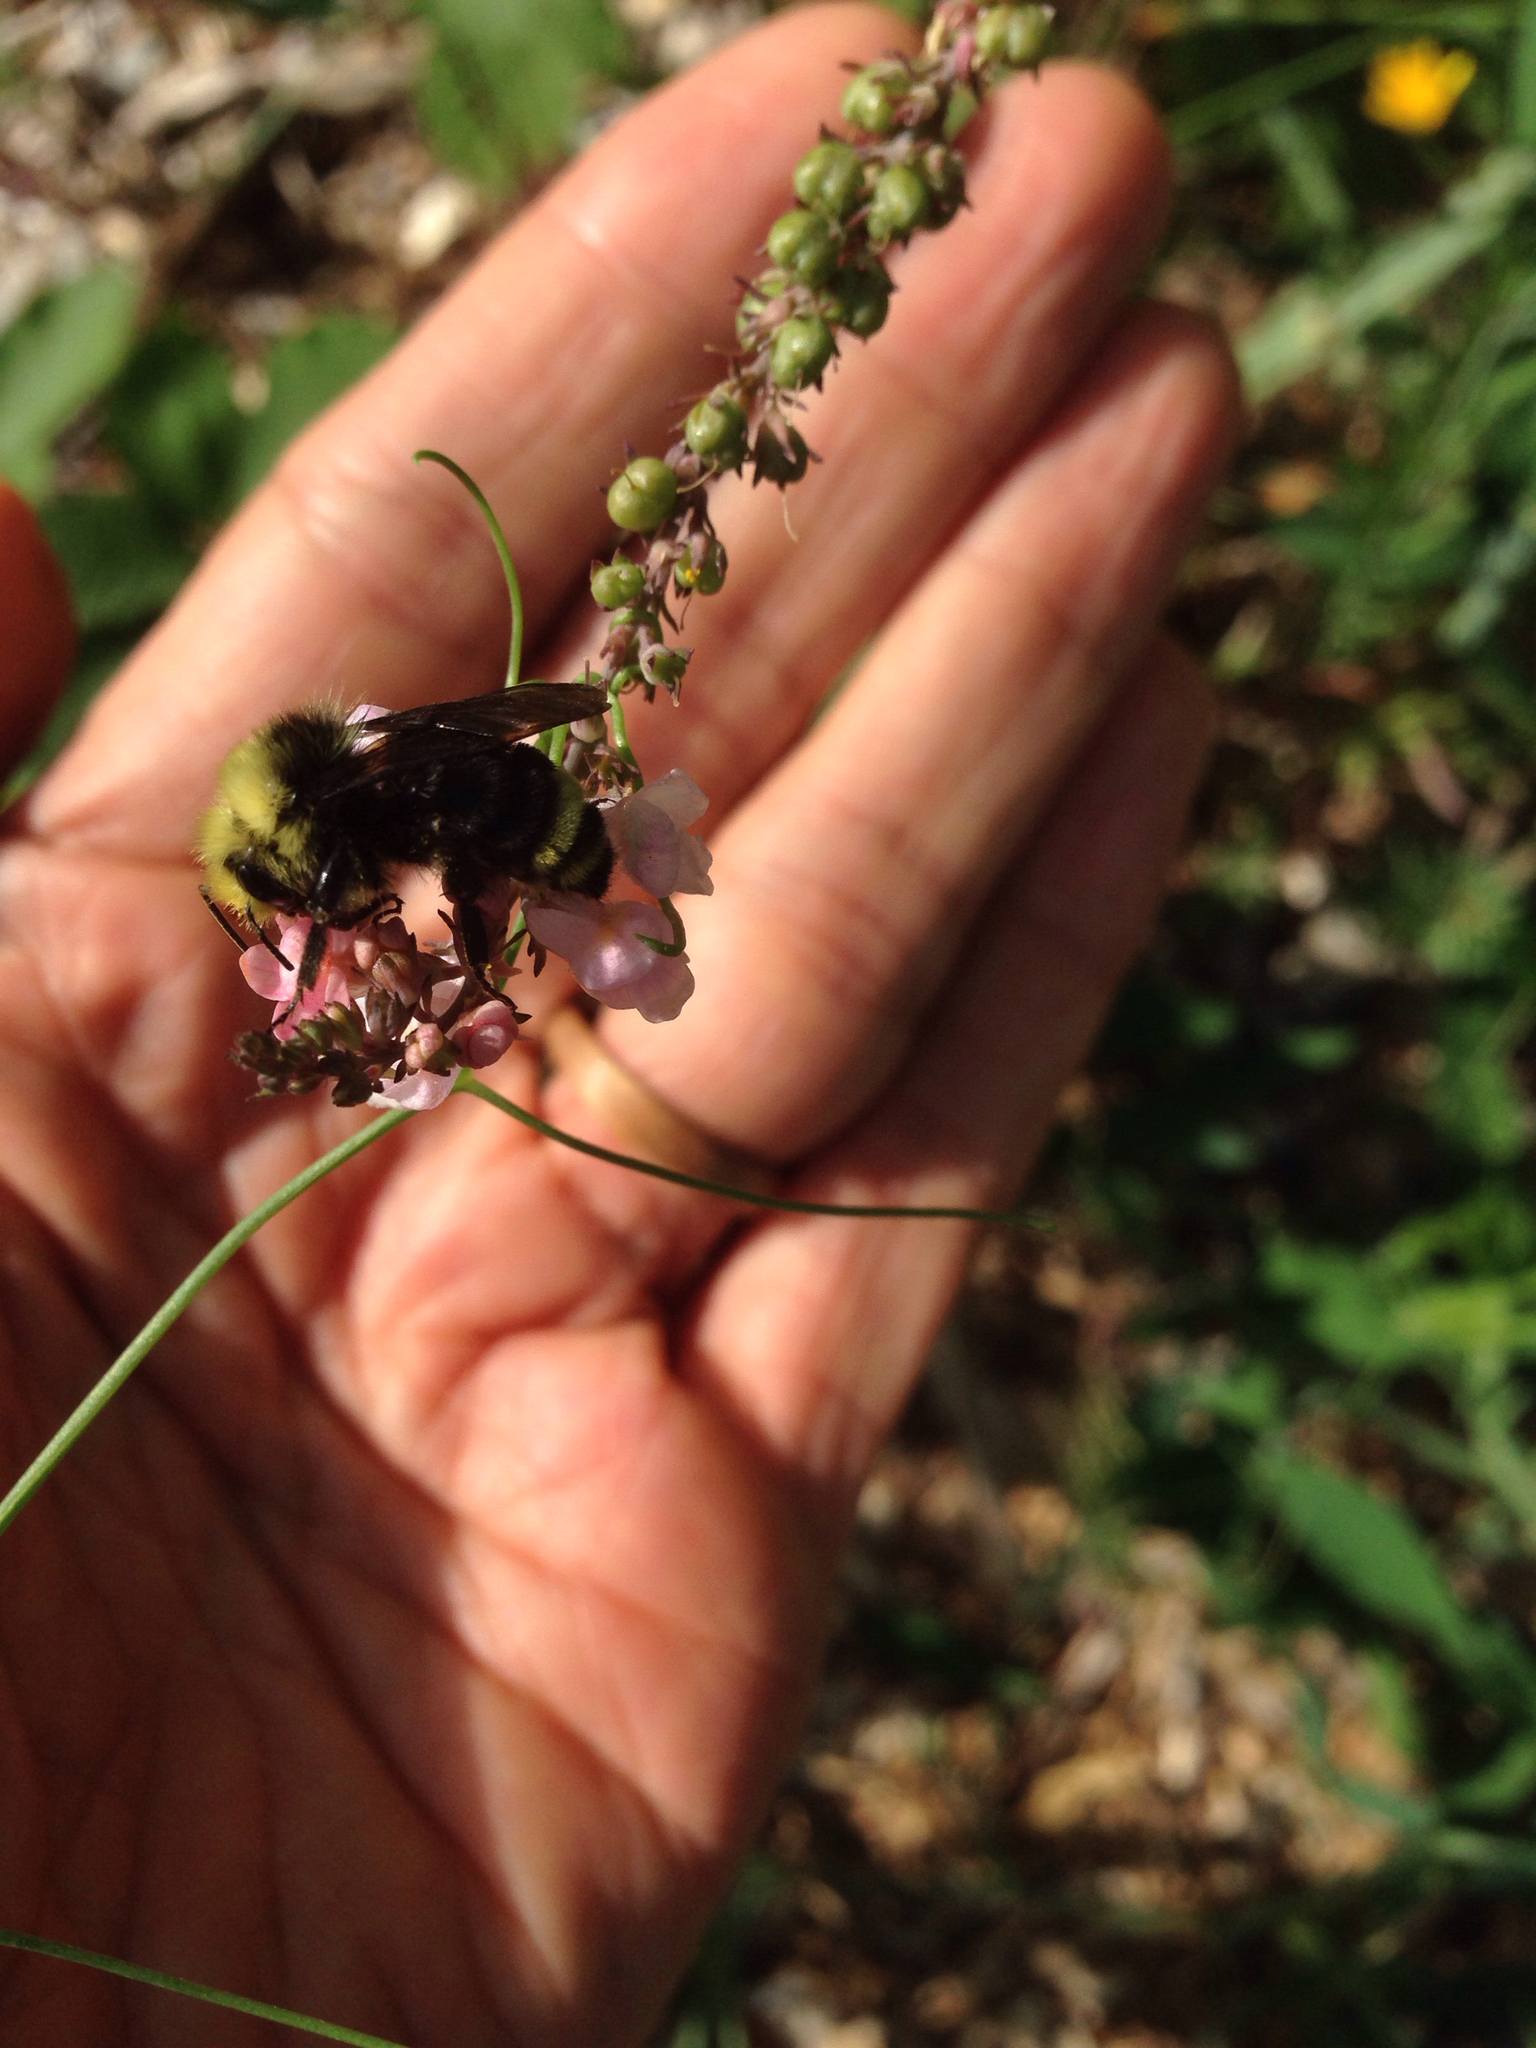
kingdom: Animalia
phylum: Arthropoda
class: Insecta
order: Hymenoptera
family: Apidae
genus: Bombus
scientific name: Bombus vosnesenskii
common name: Vosnesensky bumble bee
